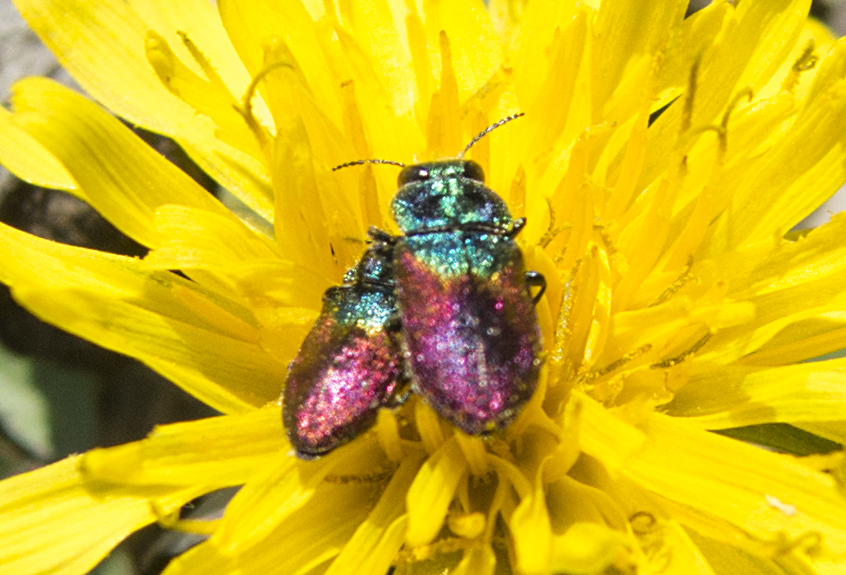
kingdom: Animalia
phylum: Arthropoda
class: Insecta
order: Coleoptera
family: Buprestidae
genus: Anthaxia
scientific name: Anthaxia salicis
